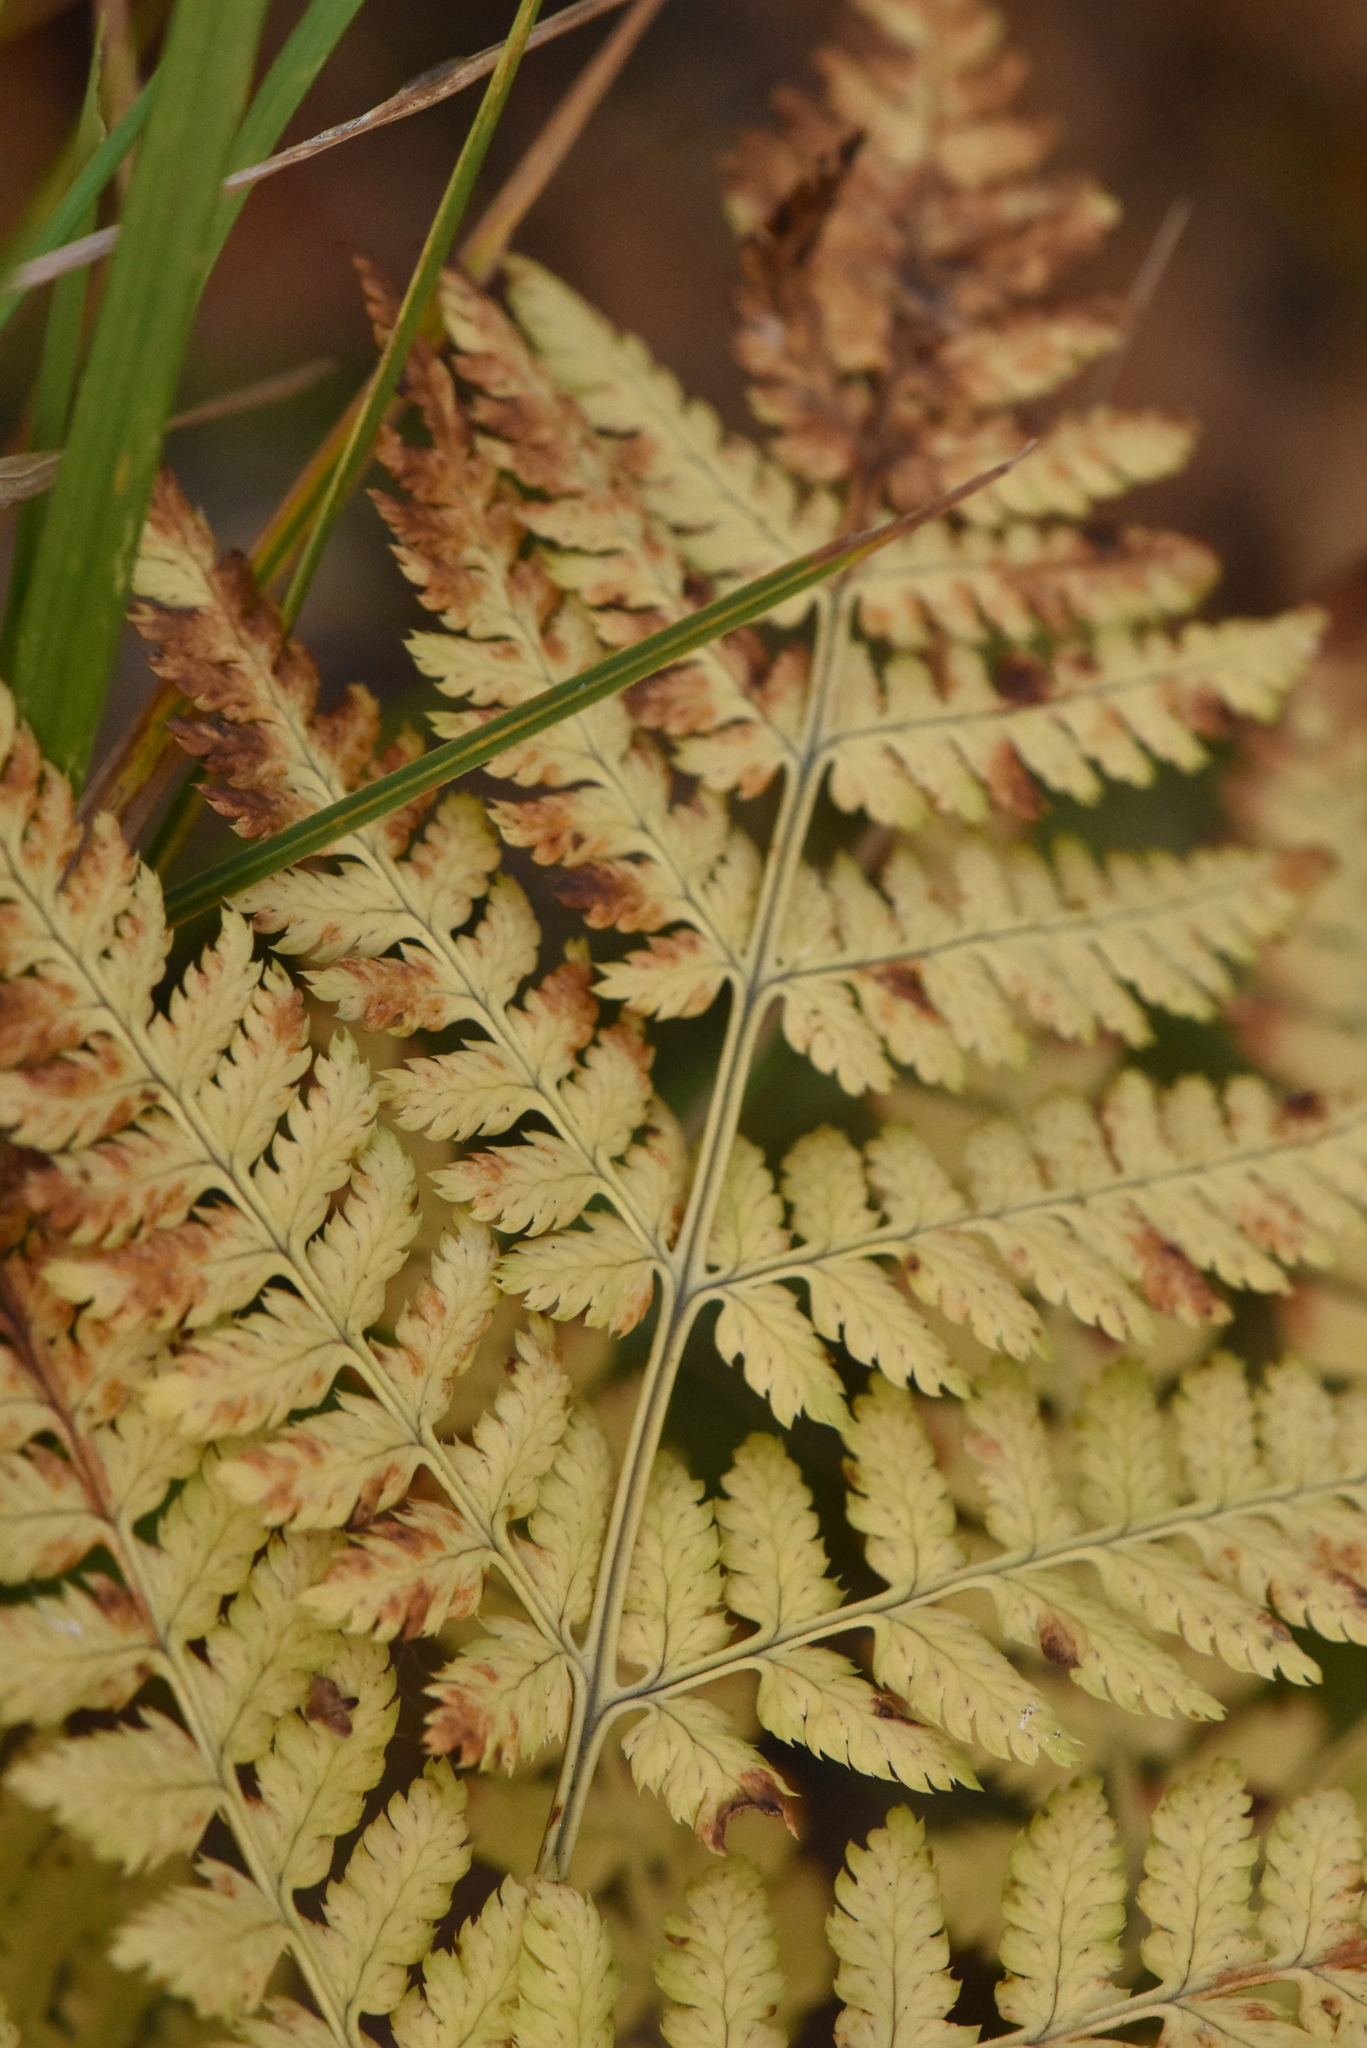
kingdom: Plantae
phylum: Tracheophyta
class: Polypodiopsida
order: Polypodiales
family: Dryopteridaceae
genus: Dryopteris
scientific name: Dryopteris carthusiana
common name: Narrow buckler-fern
